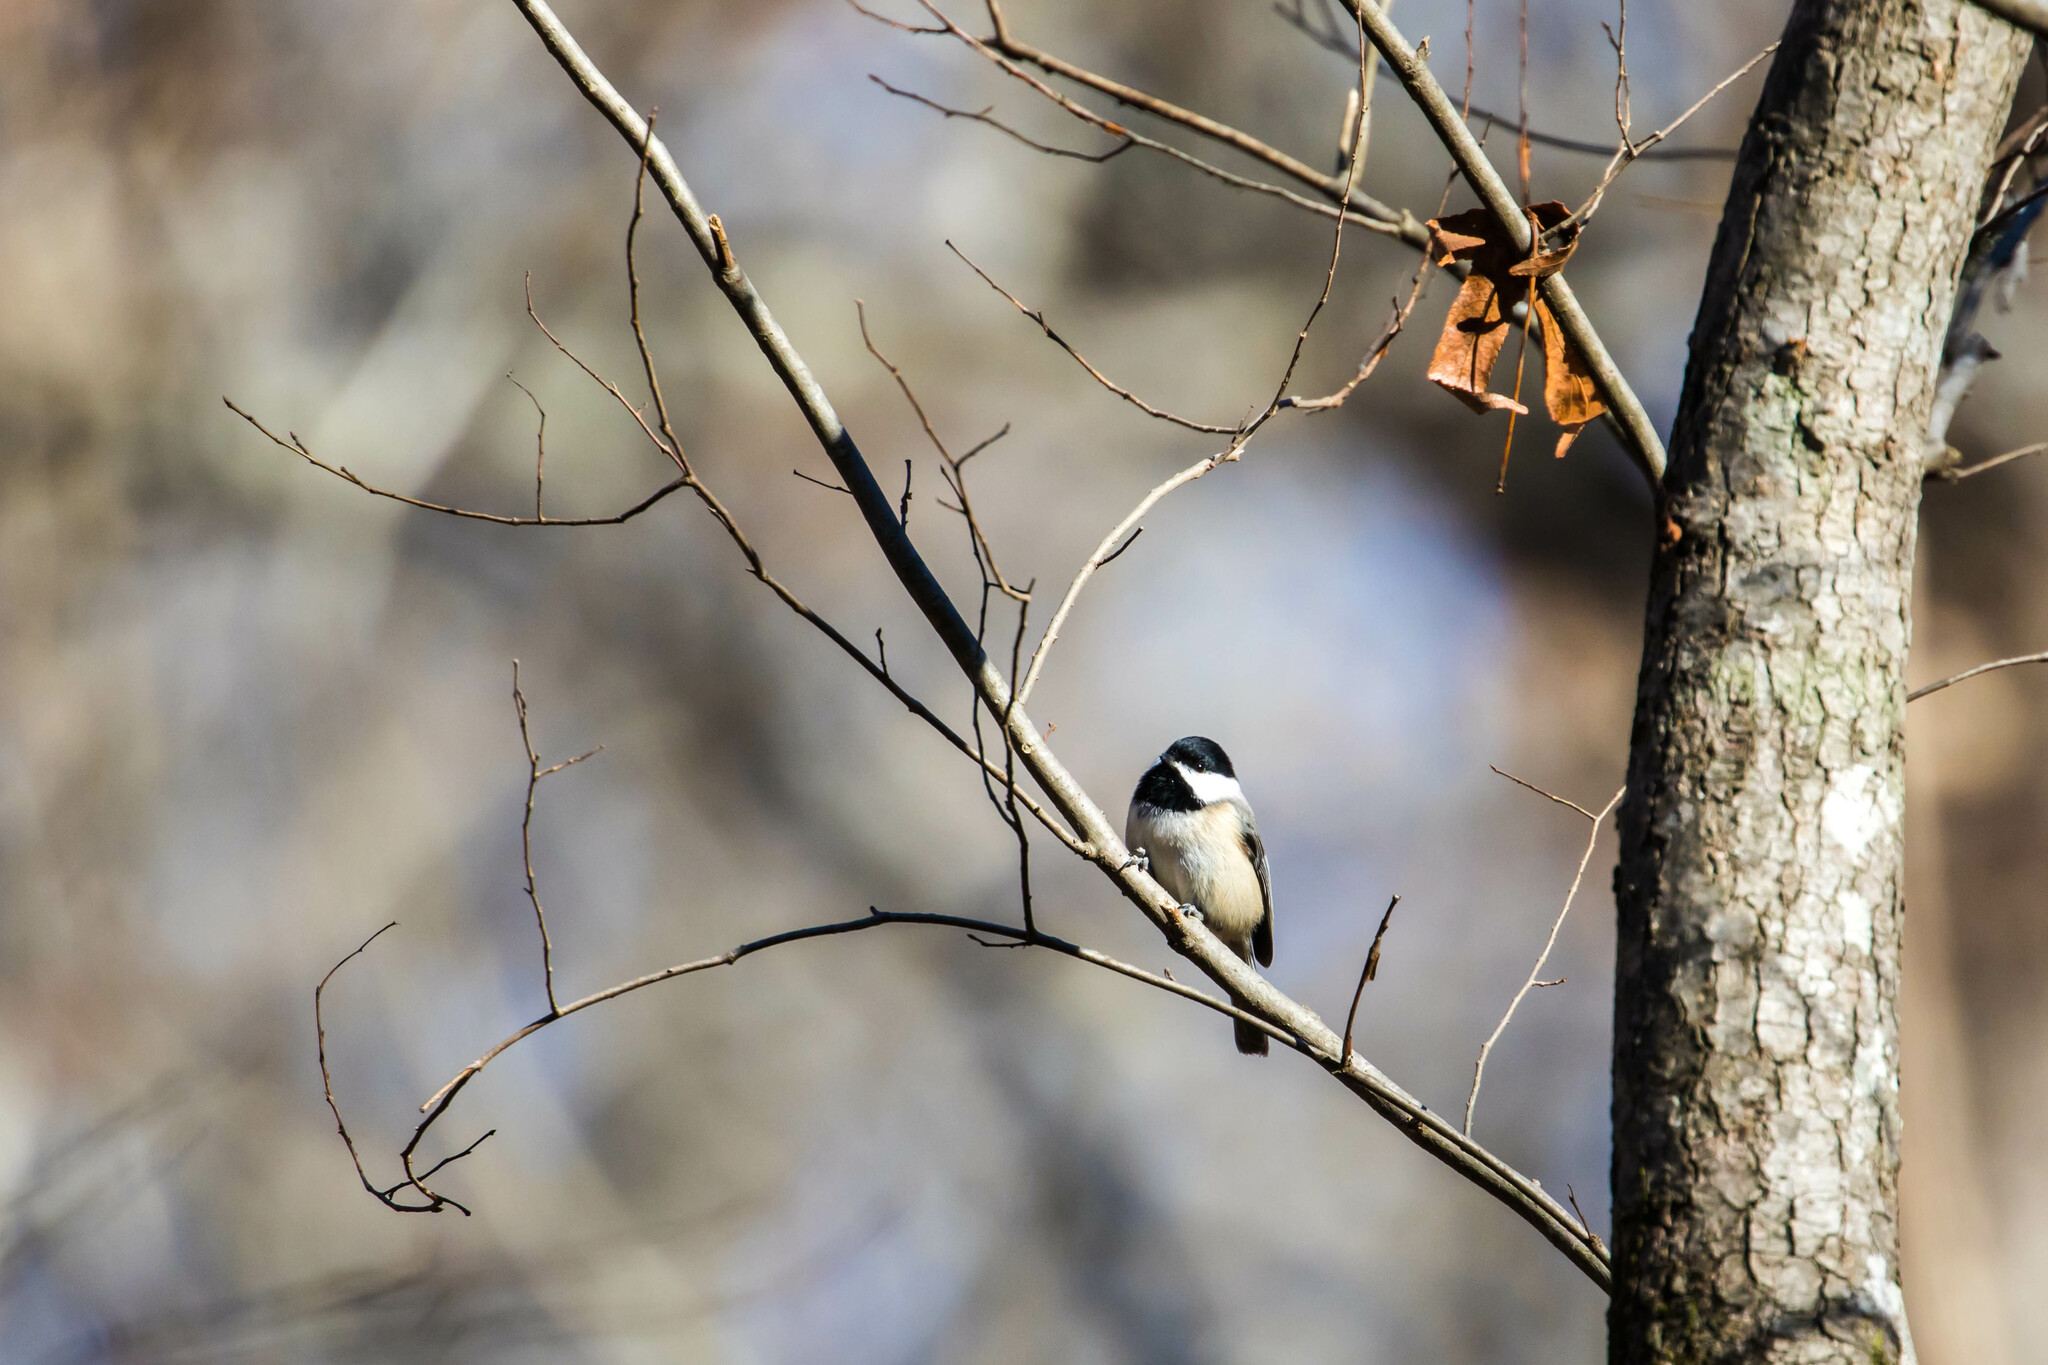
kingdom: Animalia
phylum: Chordata
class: Aves
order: Passeriformes
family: Paridae
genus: Poecile
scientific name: Poecile carolinensis
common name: Carolina chickadee
